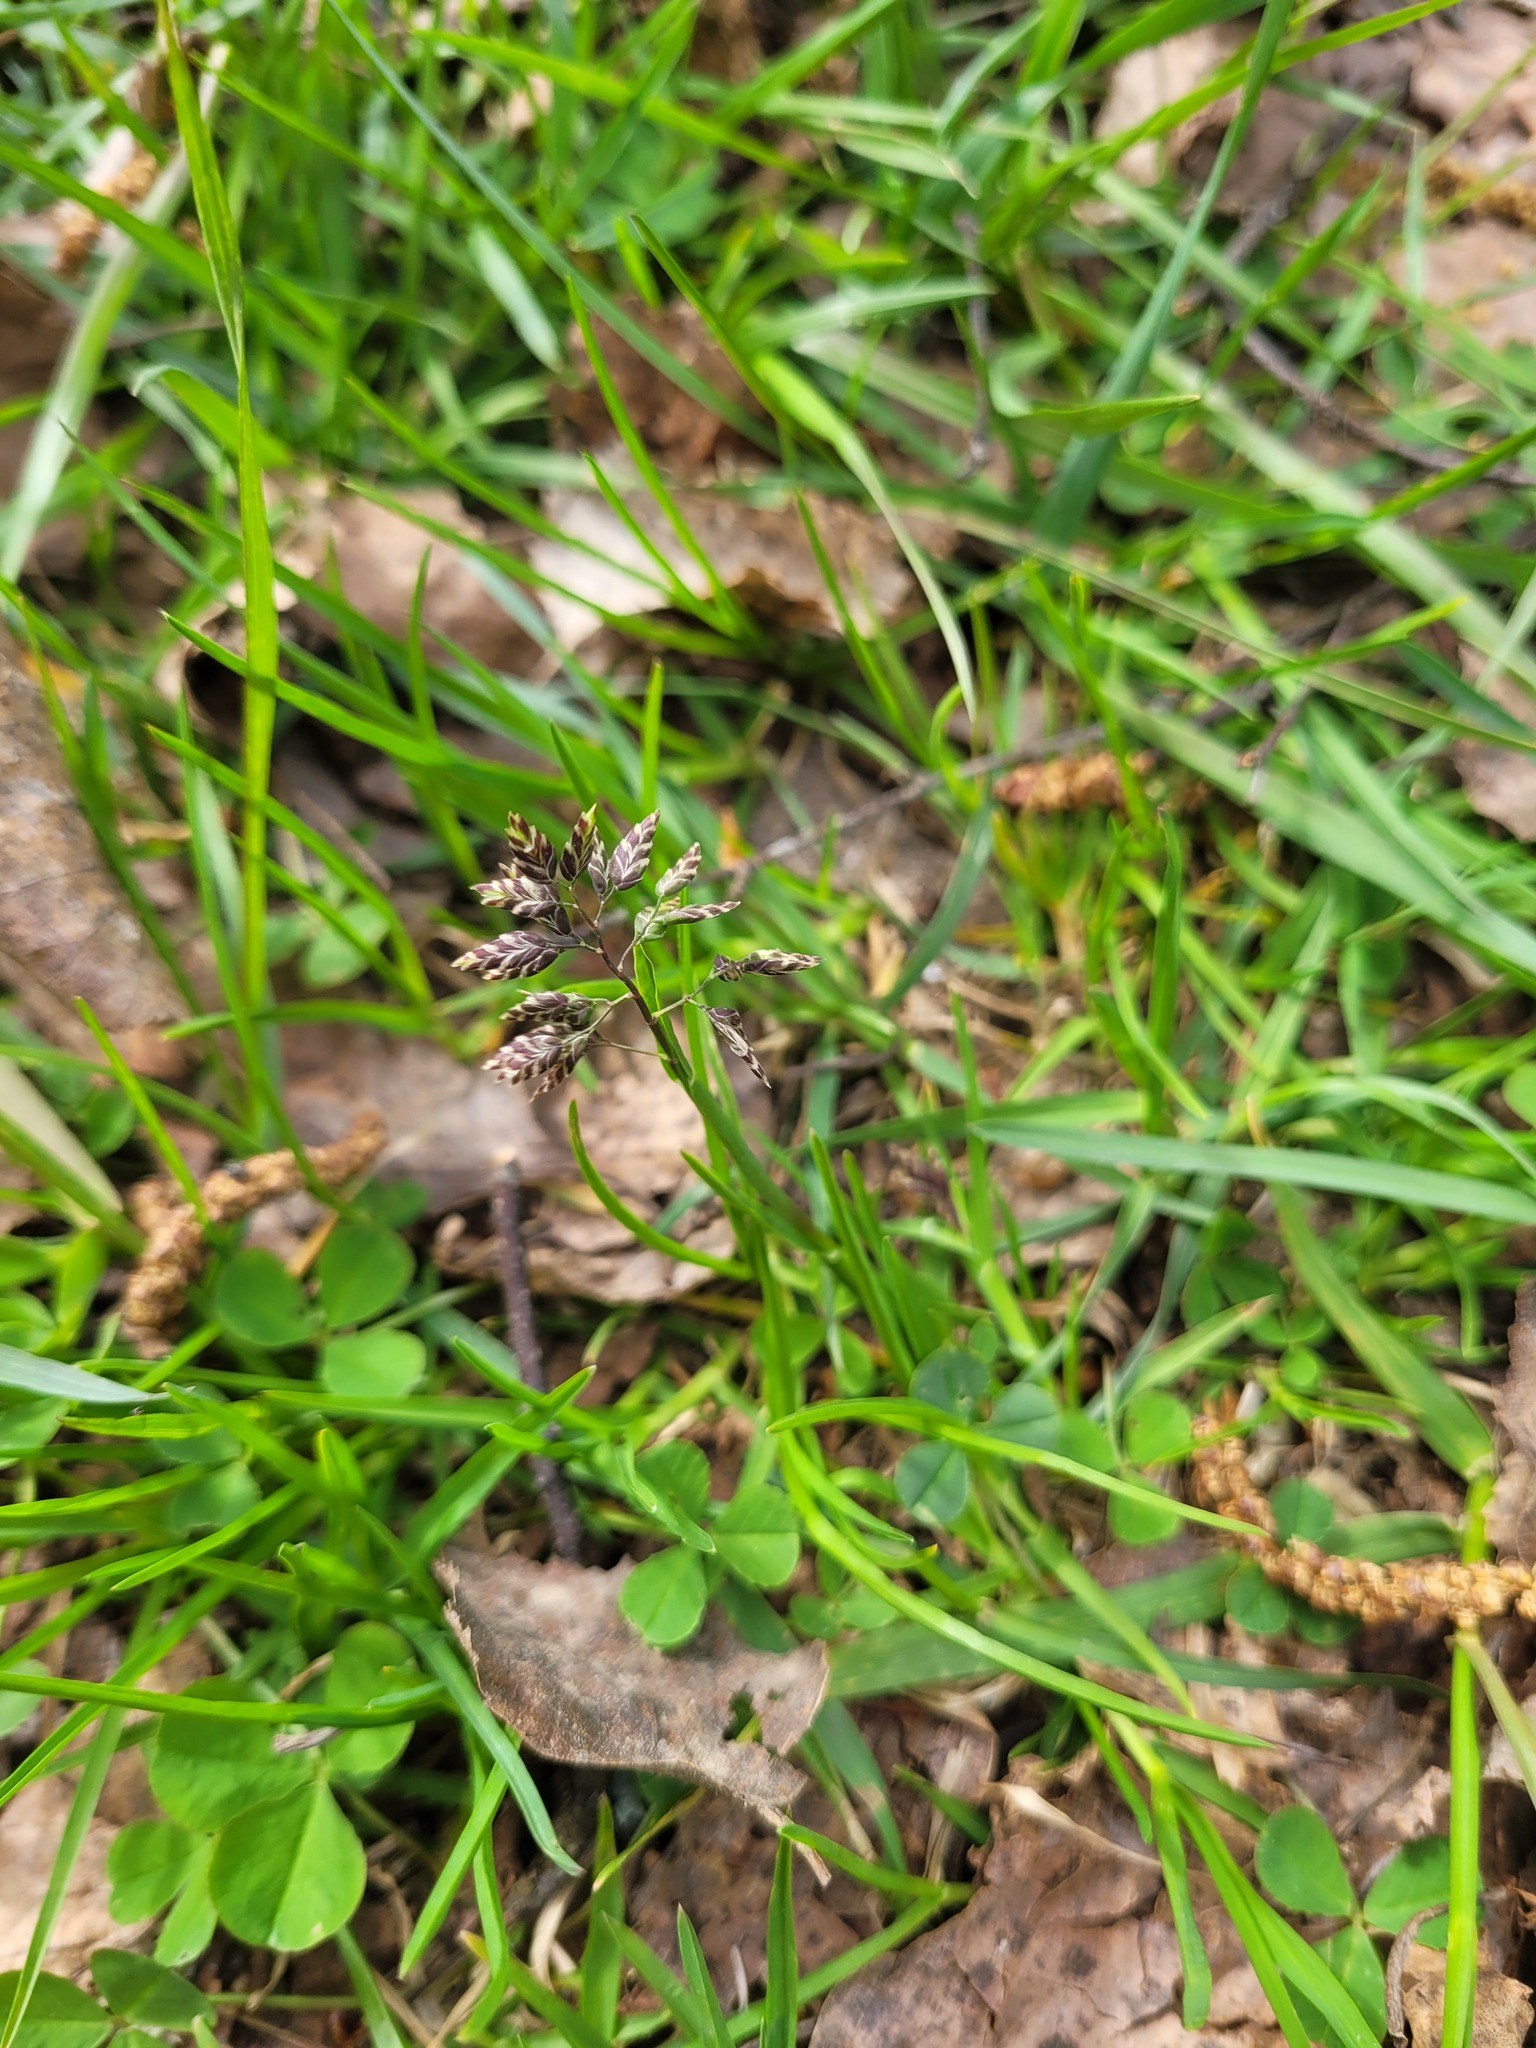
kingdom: Plantae
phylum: Tracheophyta
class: Liliopsida
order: Poales
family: Poaceae
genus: Poa
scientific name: Poa supina
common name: Supina bluegrass
